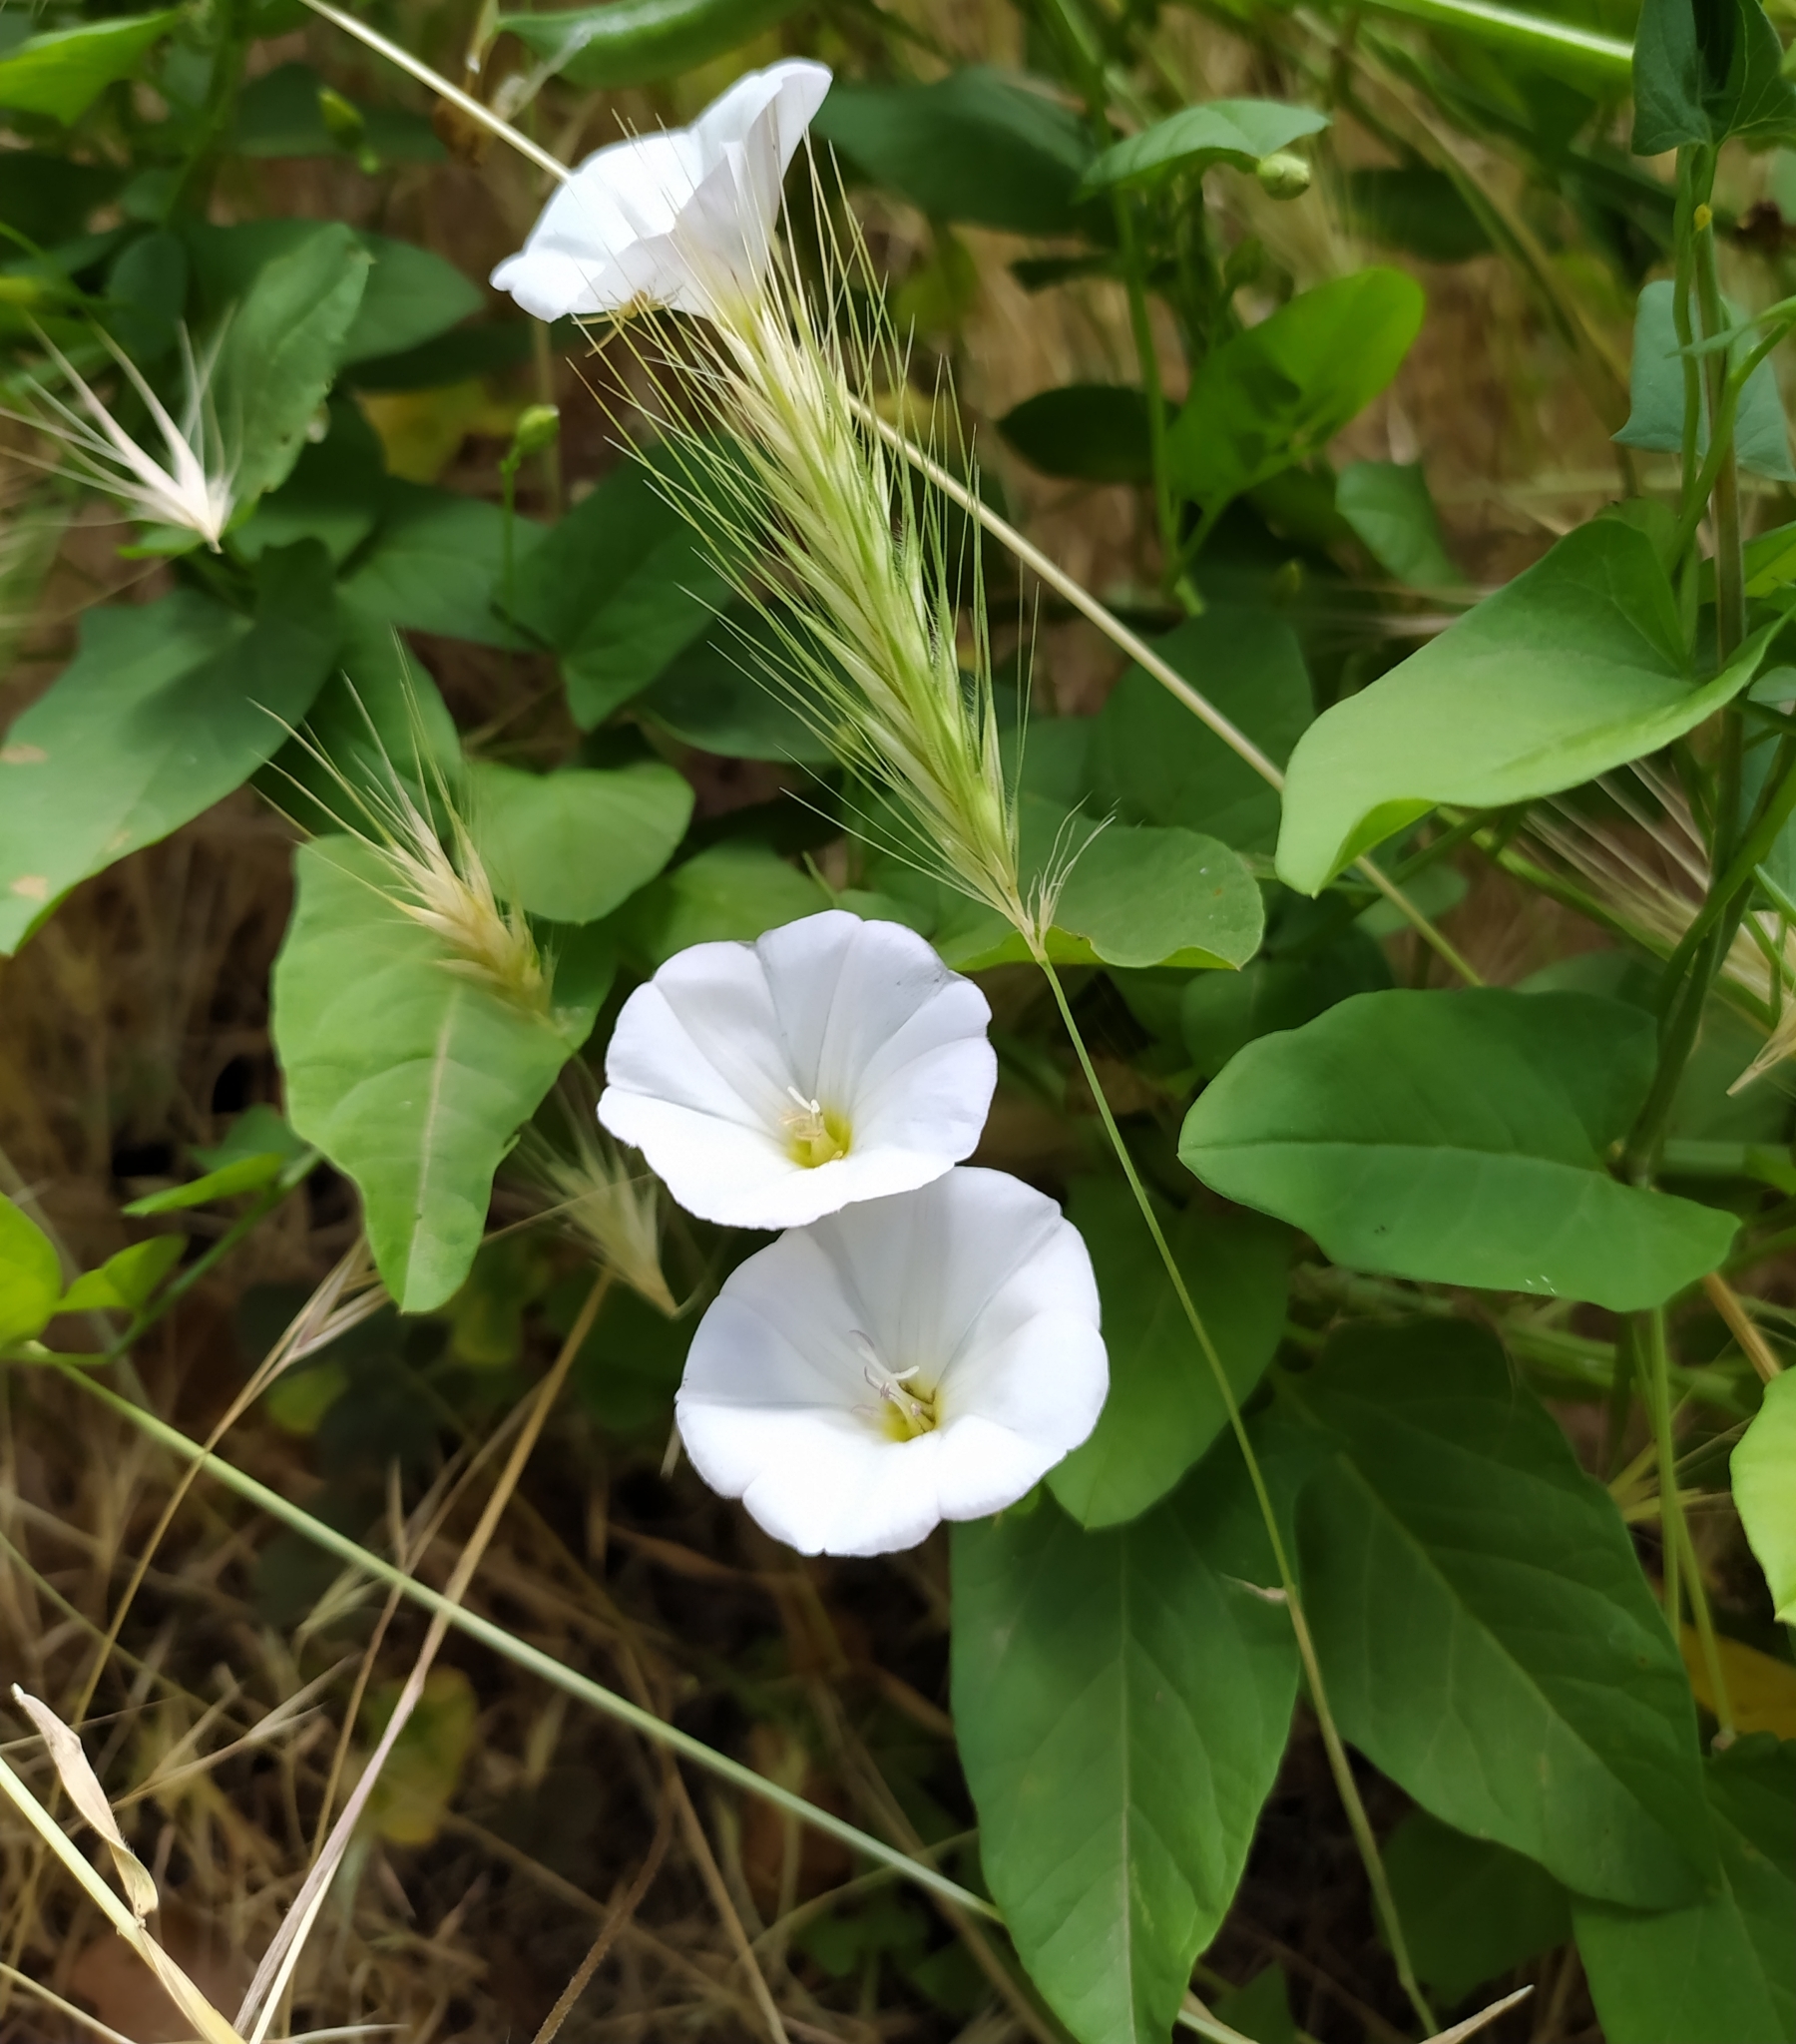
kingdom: Plantae
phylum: Tracheophyta
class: Magnoliopsida
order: Solanales
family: Convolvulaceae
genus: Convolvulus
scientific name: Convolvulus arvensis
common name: Field bindweed
